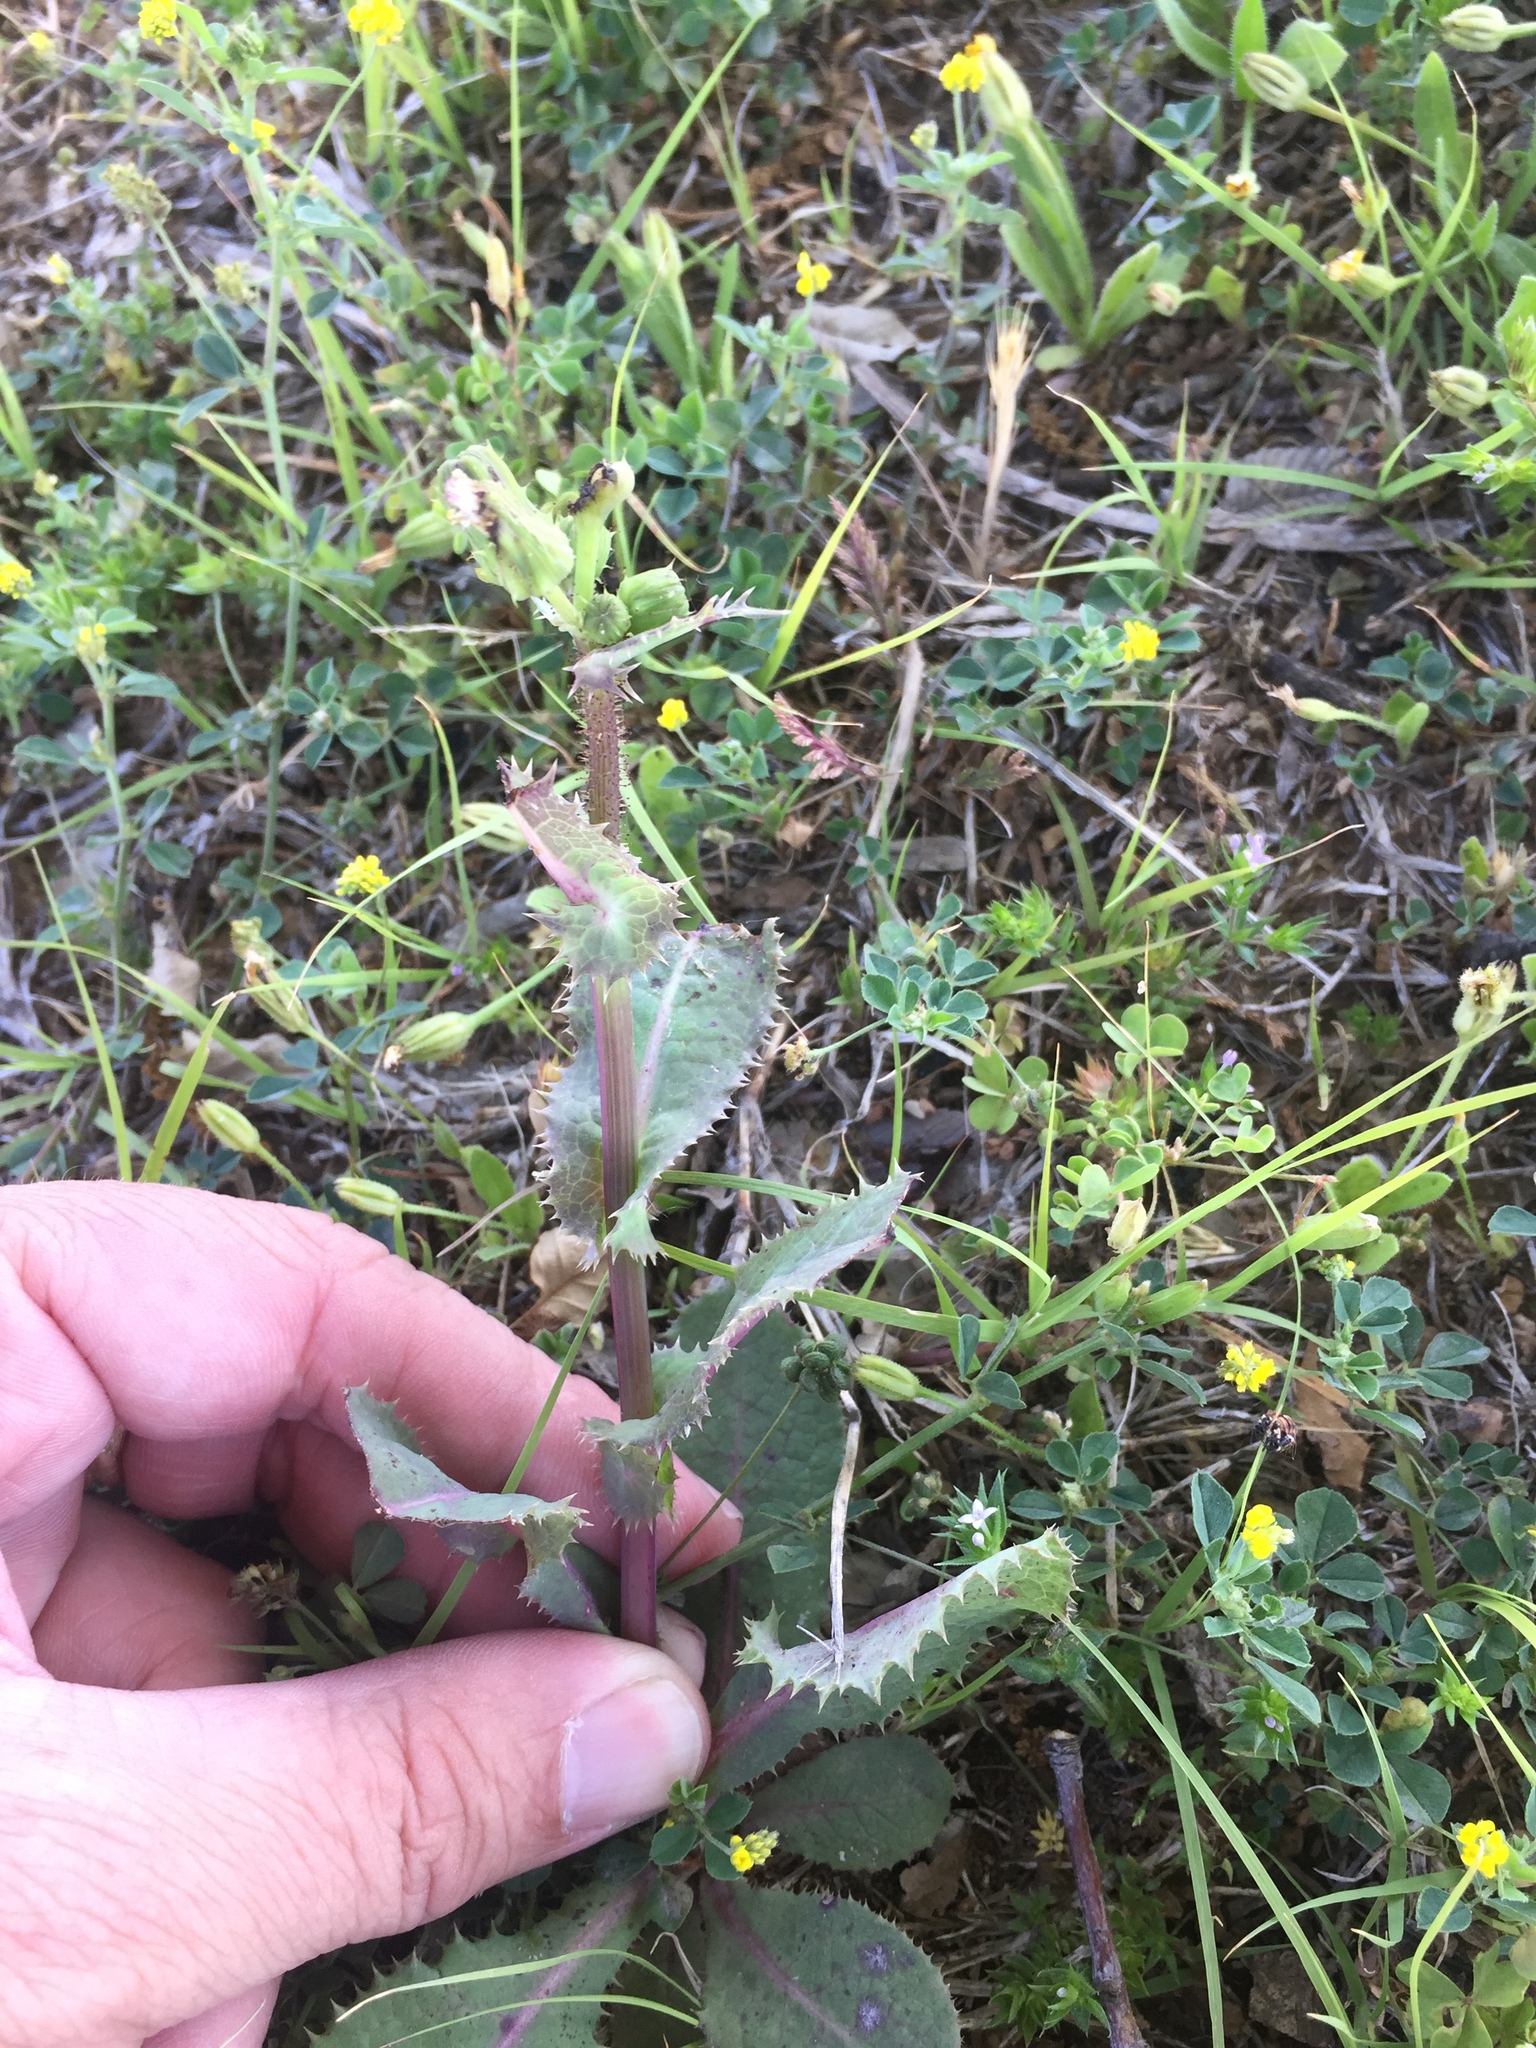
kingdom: Plantae
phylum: Tracheophyta
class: Magnoliopsida
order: Asterales
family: Asteraceae
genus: Sonchus
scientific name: Sonchus oleraceus
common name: Common sowthistle
